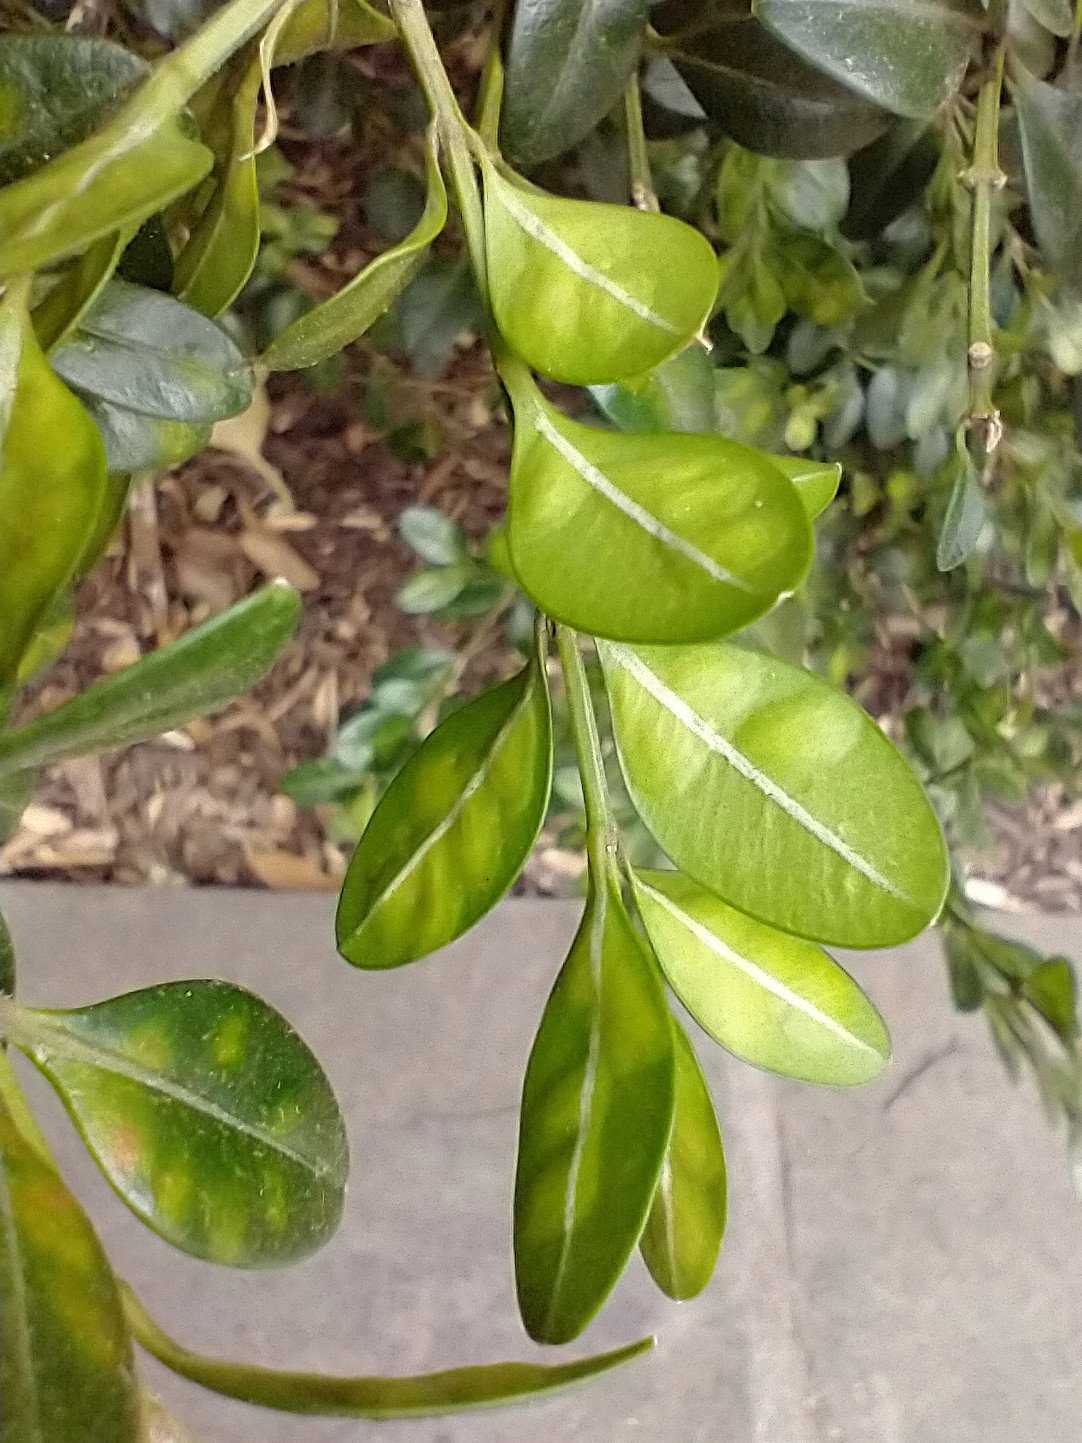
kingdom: Animalia
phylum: Arthropoda
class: Insecta
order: Diptera
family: Cecidomyiidae
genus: Monarthropalpus
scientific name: Monarthropalpus flavus
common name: Boxwood leafminer
